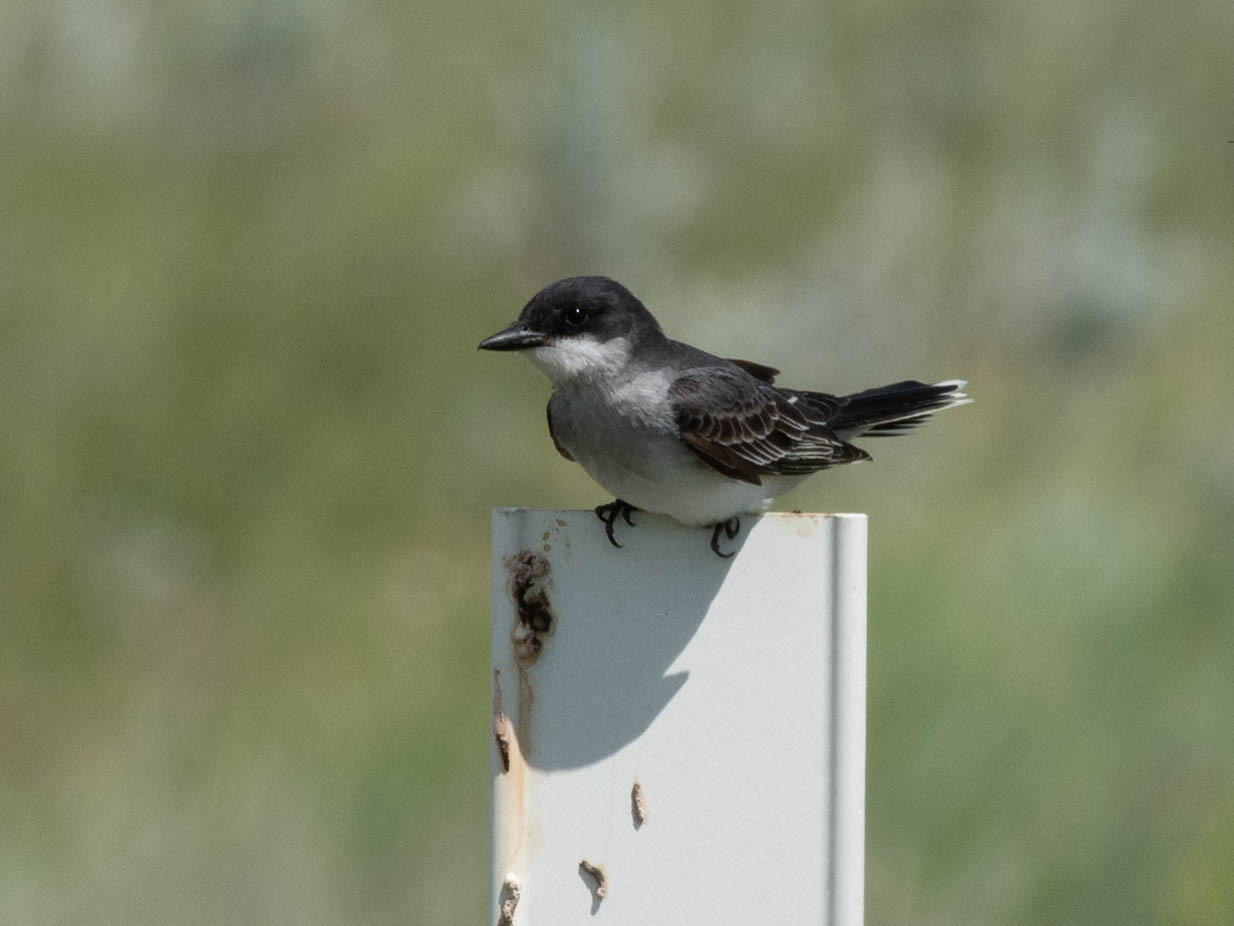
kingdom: Animalia
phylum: Chordata
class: Aves
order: Passeriformes
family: Tyrannidae
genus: Tyrannus
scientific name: Tyrannus tyrannus
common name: Eastern kingbird
